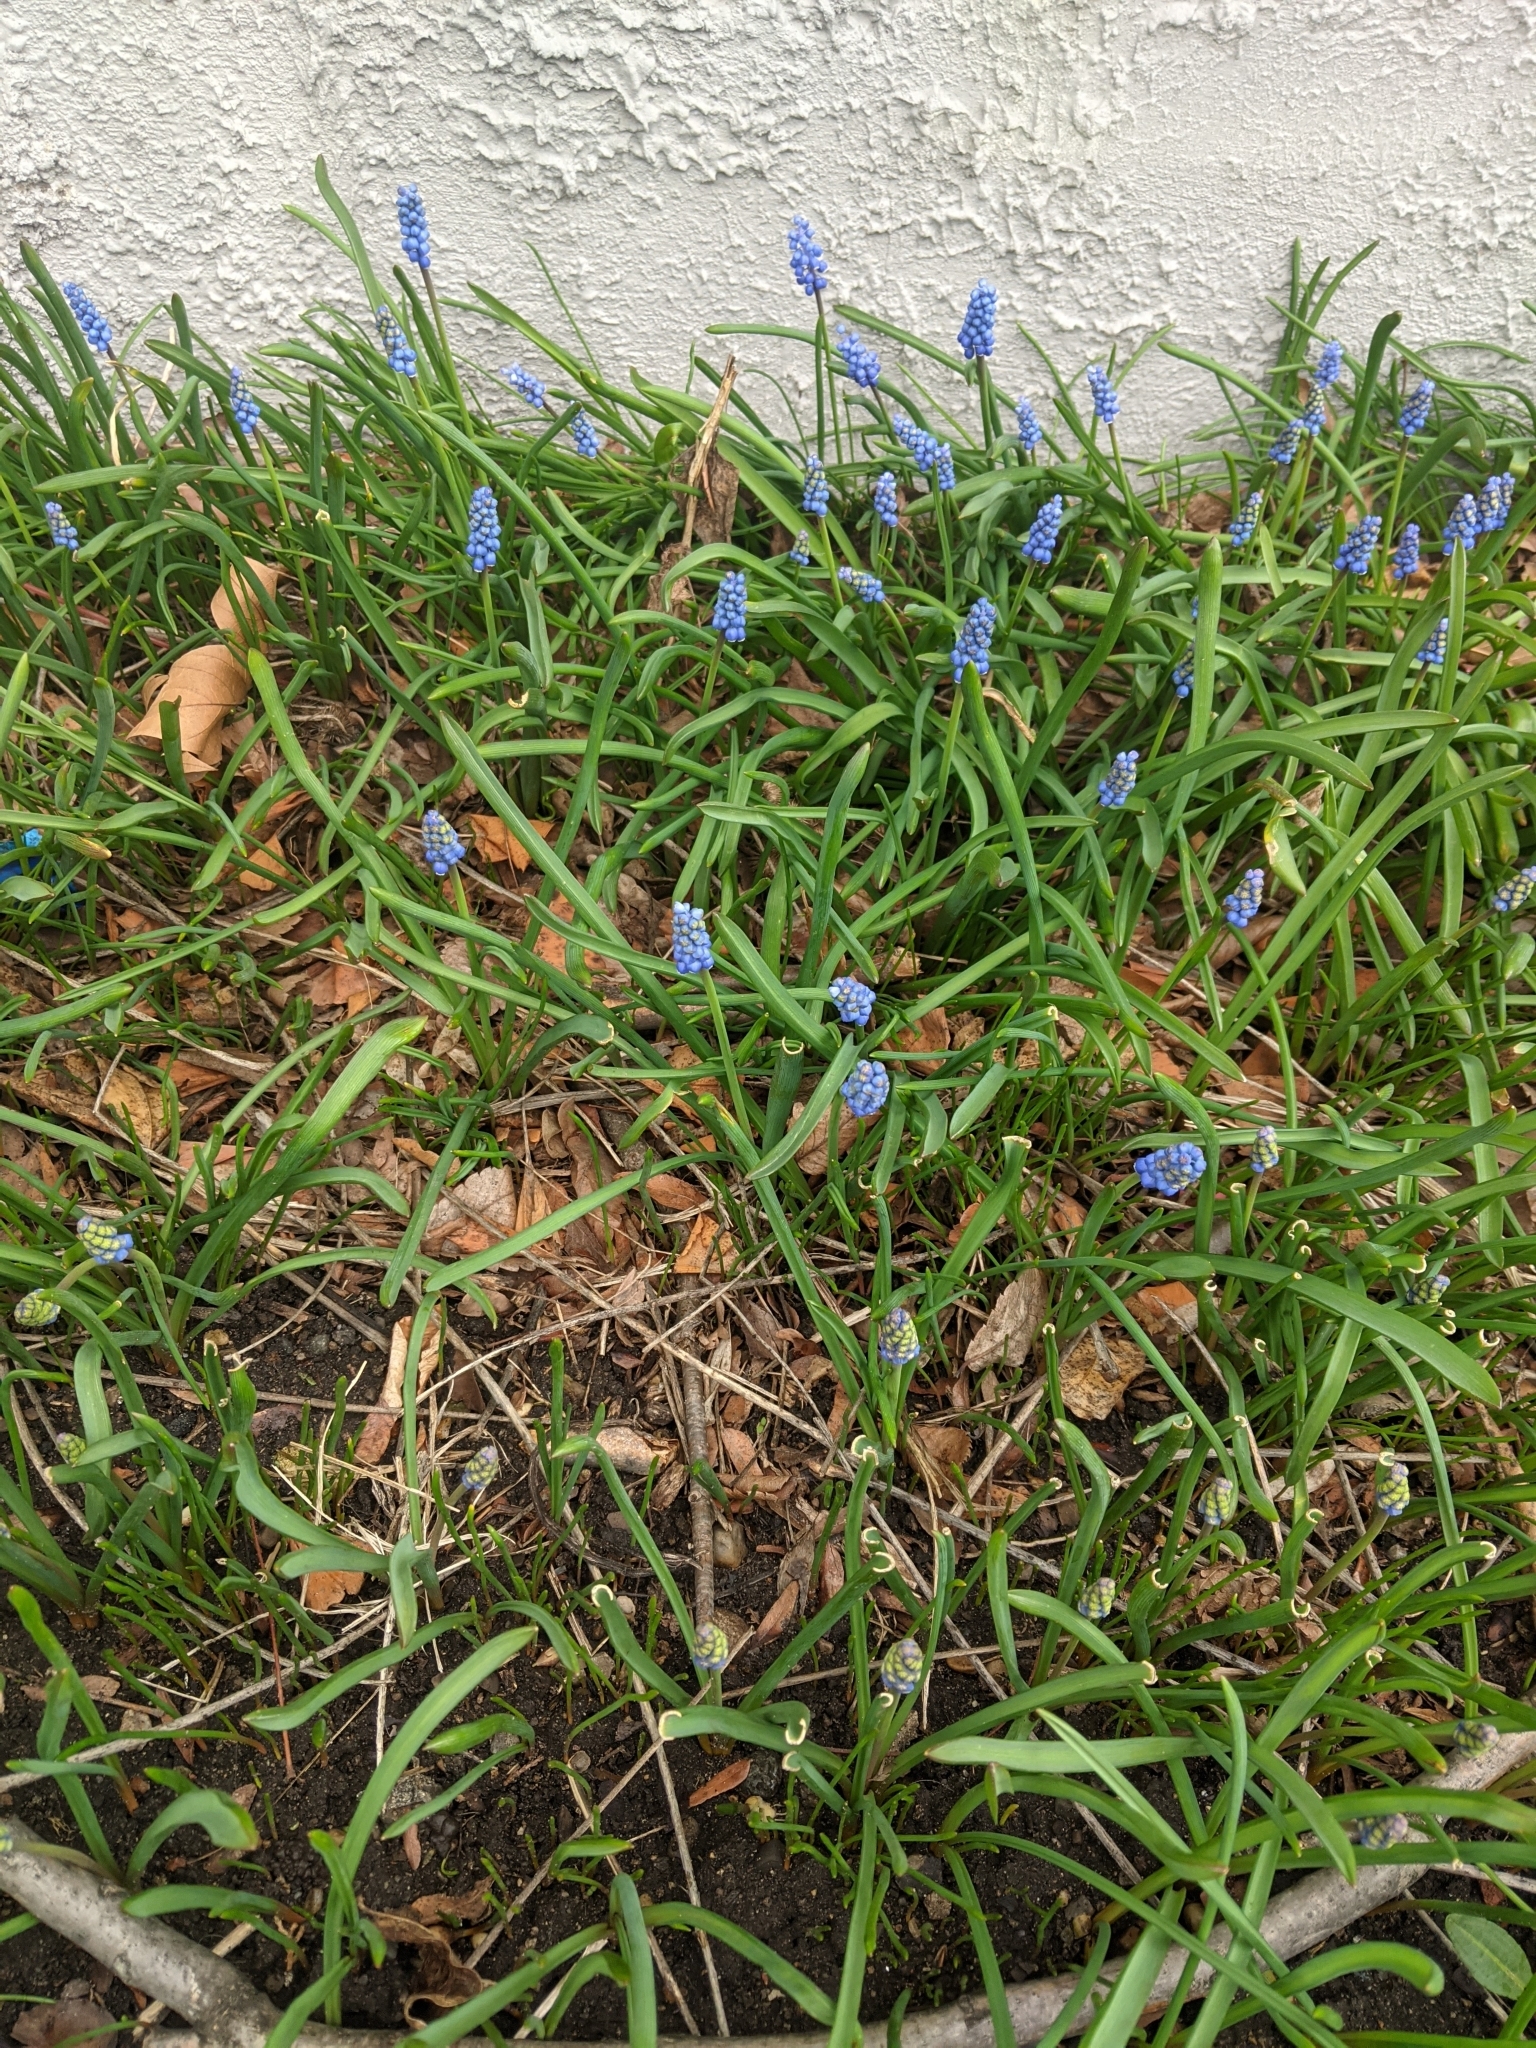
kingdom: Plantae
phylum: Tracheophyta
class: Liliopsida
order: Asparagales
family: Asparagaceae
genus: Muscari
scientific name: Muscari botryoides
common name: Compact grape-hyacinth
